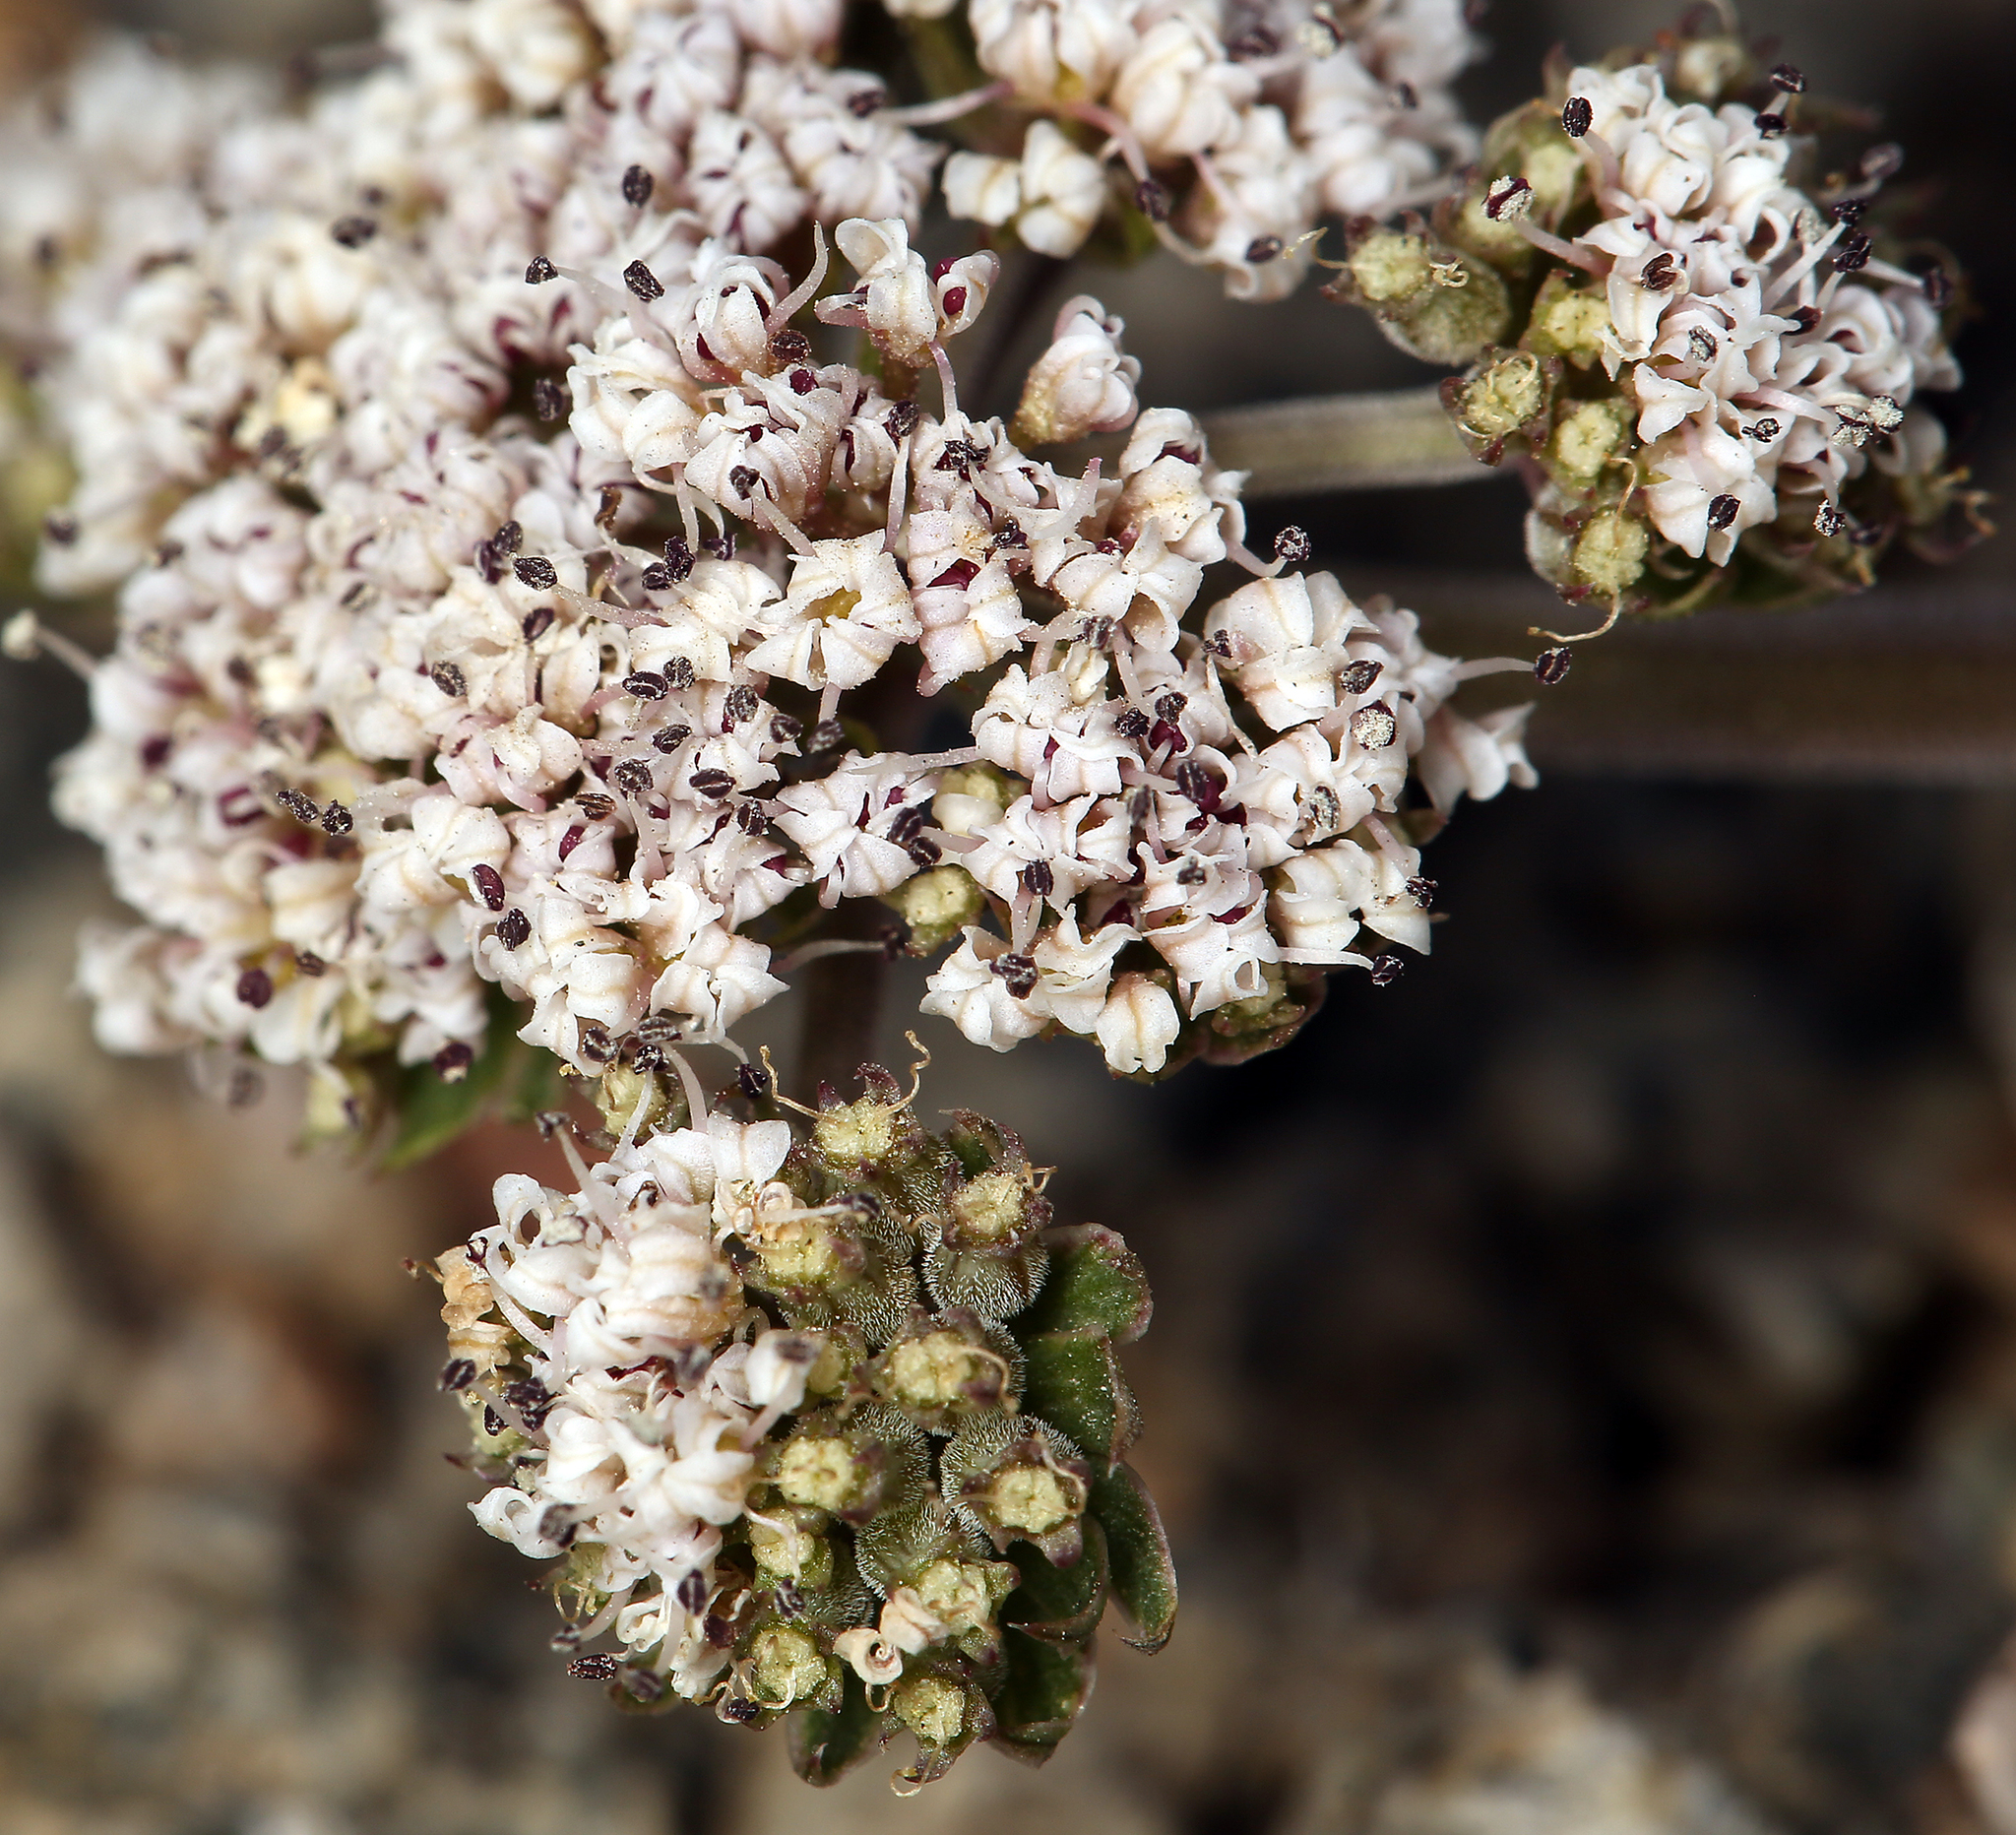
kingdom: Plantae
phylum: Tracheophyta
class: Magnoliopsida
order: Apiales
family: Apiaceae
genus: Lomatium
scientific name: Lomatium nevadense
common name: Nevada lomatium
